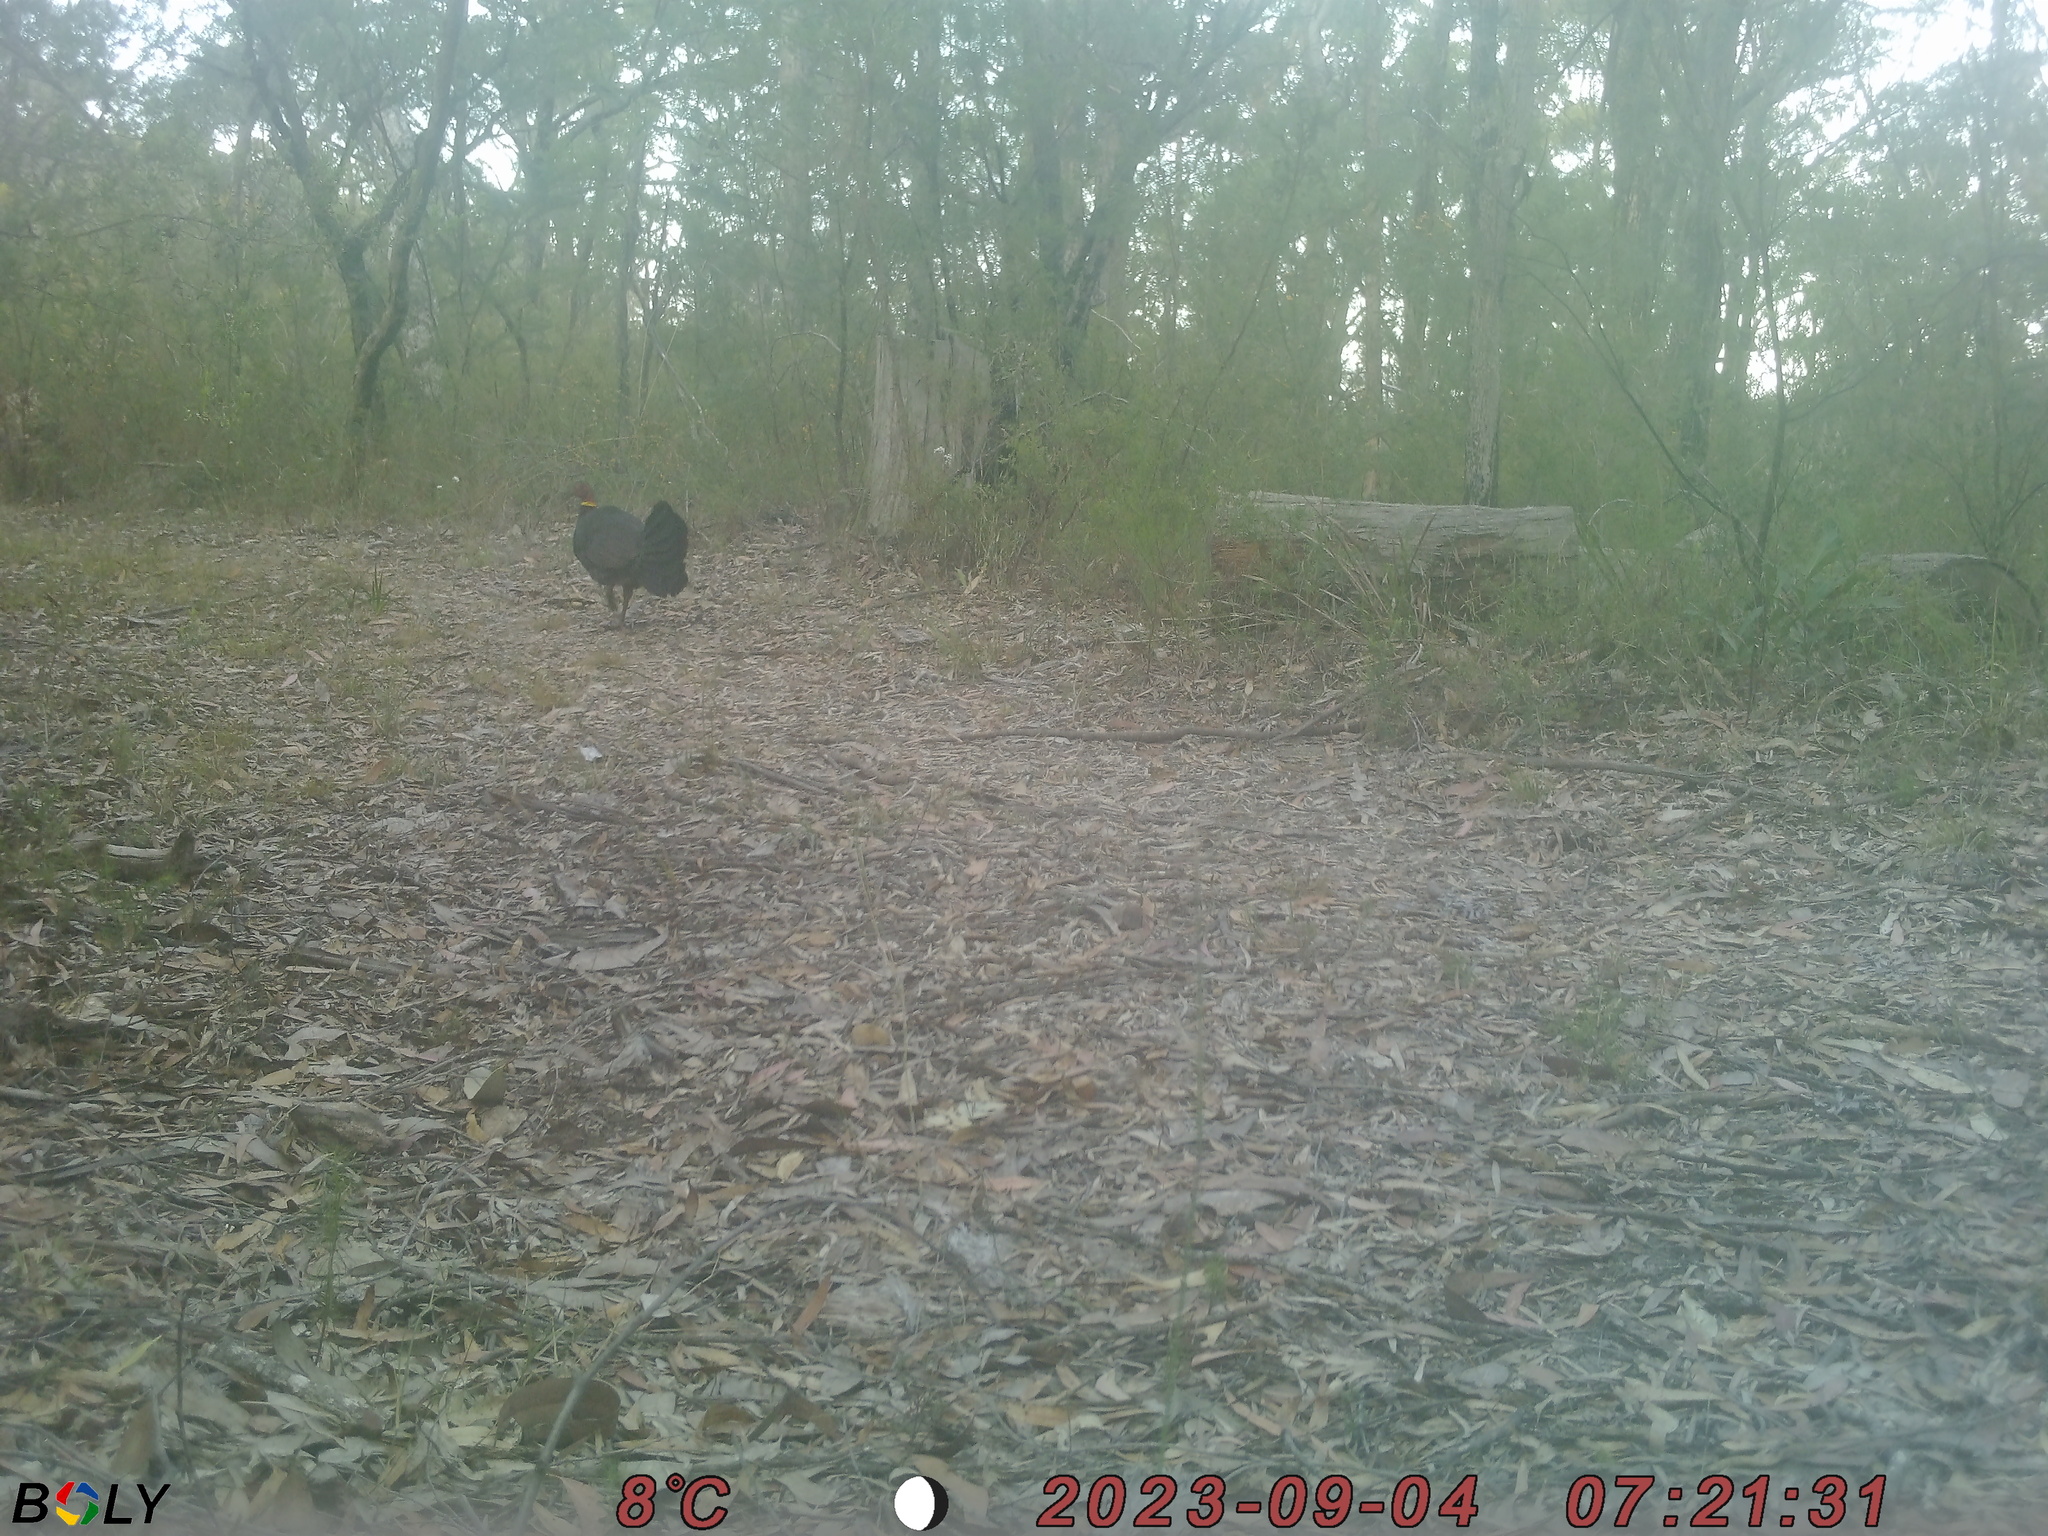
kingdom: Animalia
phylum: Chordata
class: Aves
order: Galliformes
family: Megapodiidae
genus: Alectura
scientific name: Alectura lathami
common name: Australian brushturkey
